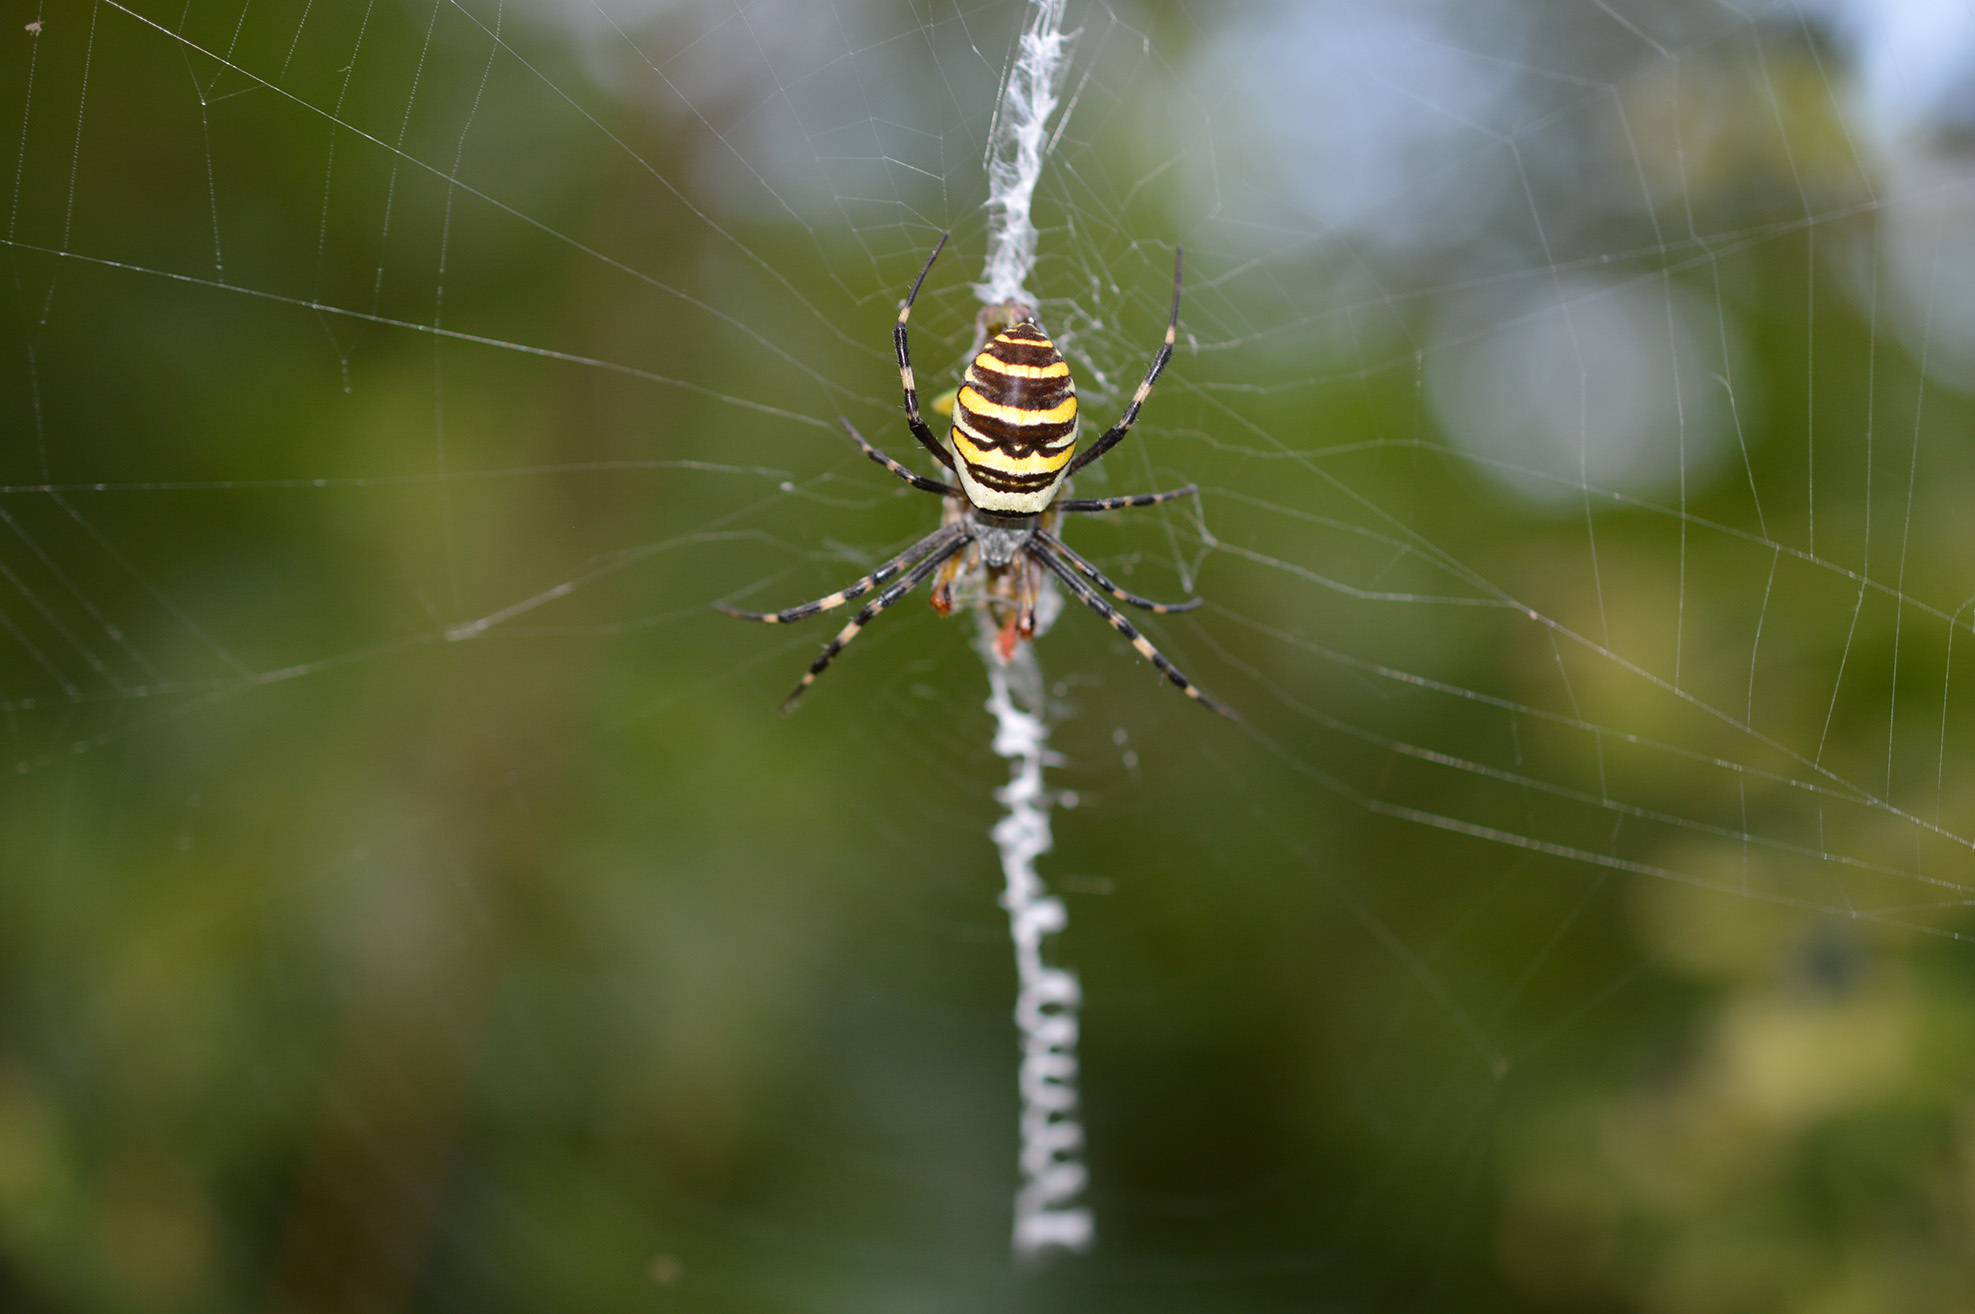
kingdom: Animalia
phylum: Arthropoda
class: Arachnida
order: Araneae
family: Araneidae
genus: Argiope
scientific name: Argiope bruennichi
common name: Wasp spider
